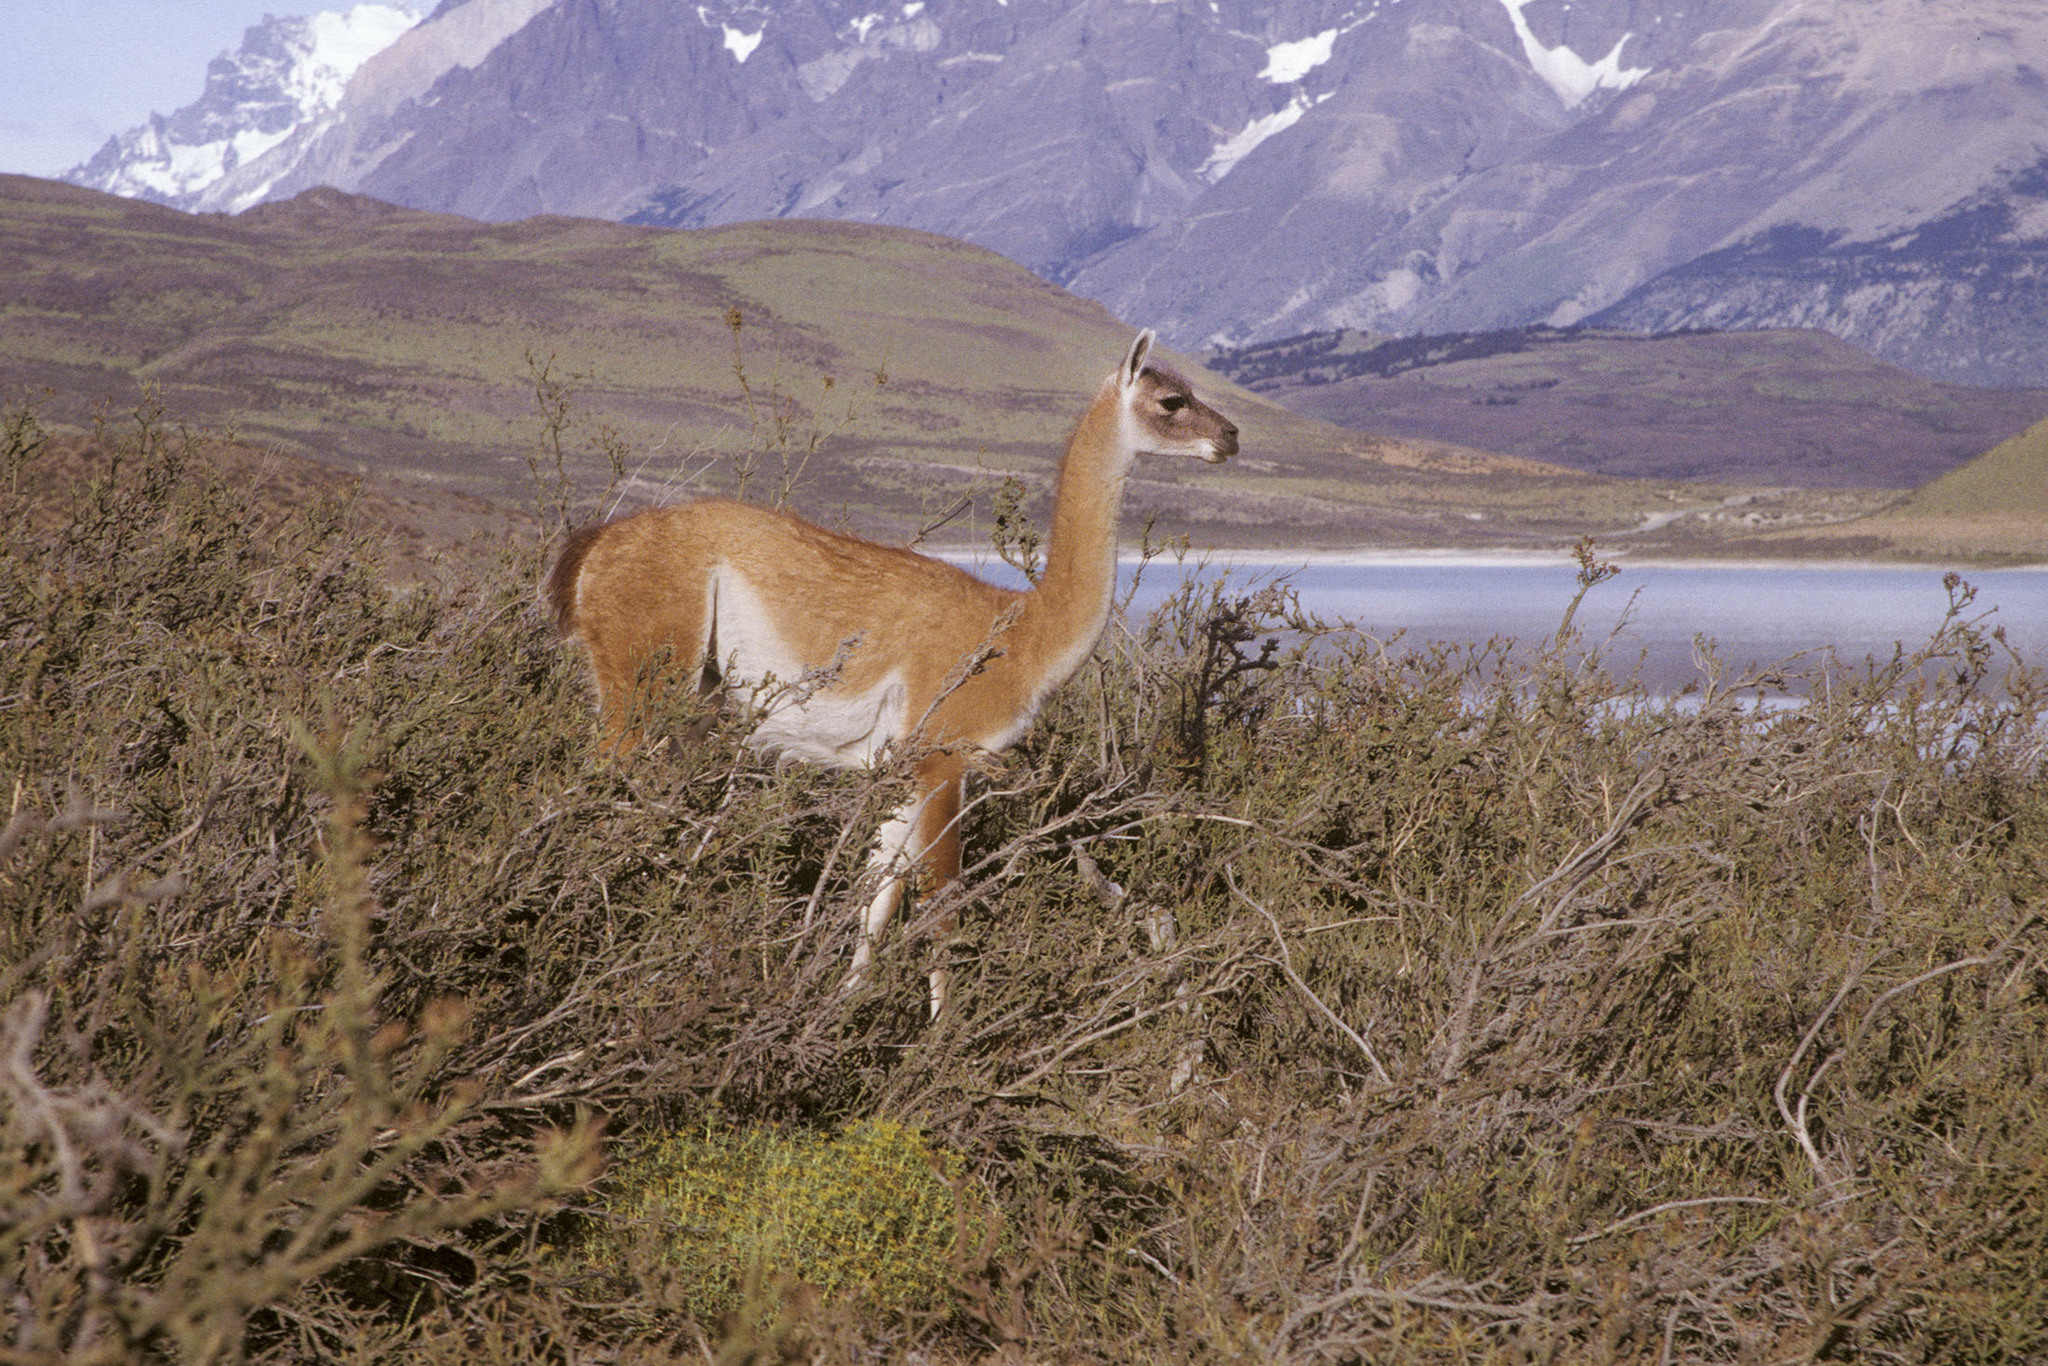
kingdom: Animalia
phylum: Chordata
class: Mammalia
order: Artiodactyla
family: Camelidae
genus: Lama
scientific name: Lama glama
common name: Llama
